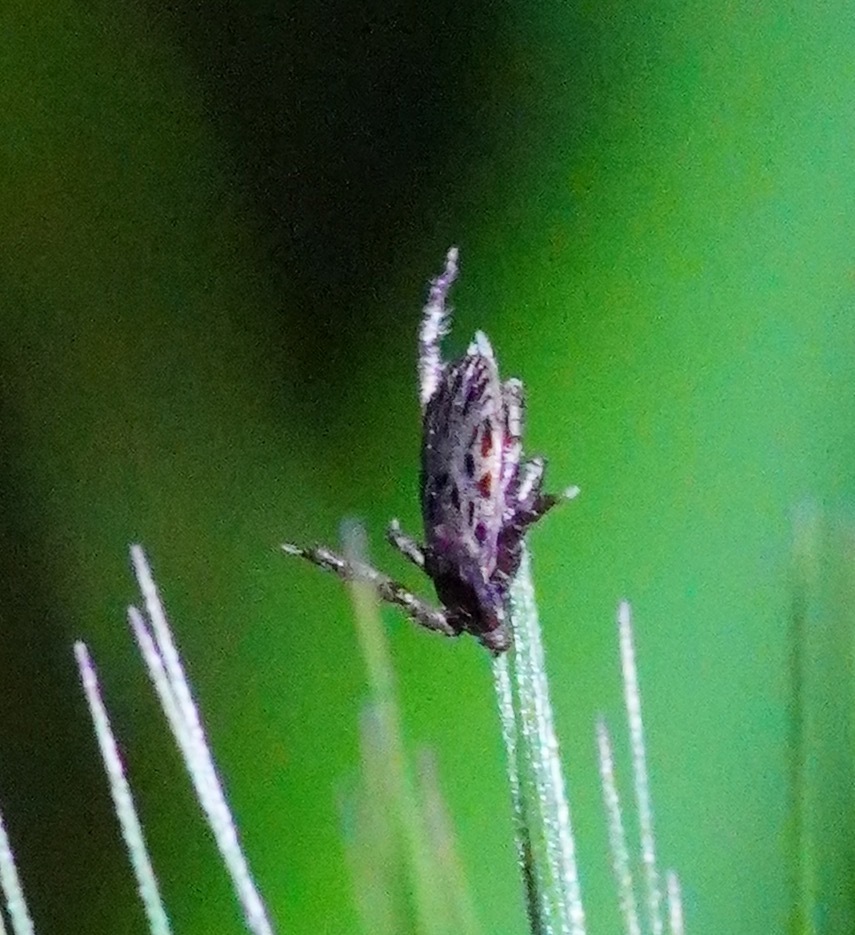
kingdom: Animalia
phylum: Arthropoda
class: Arachnida
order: Ixodida
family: Ixodidae
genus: Dermacentor
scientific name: Dermacentor occidentalis
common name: Net tick
